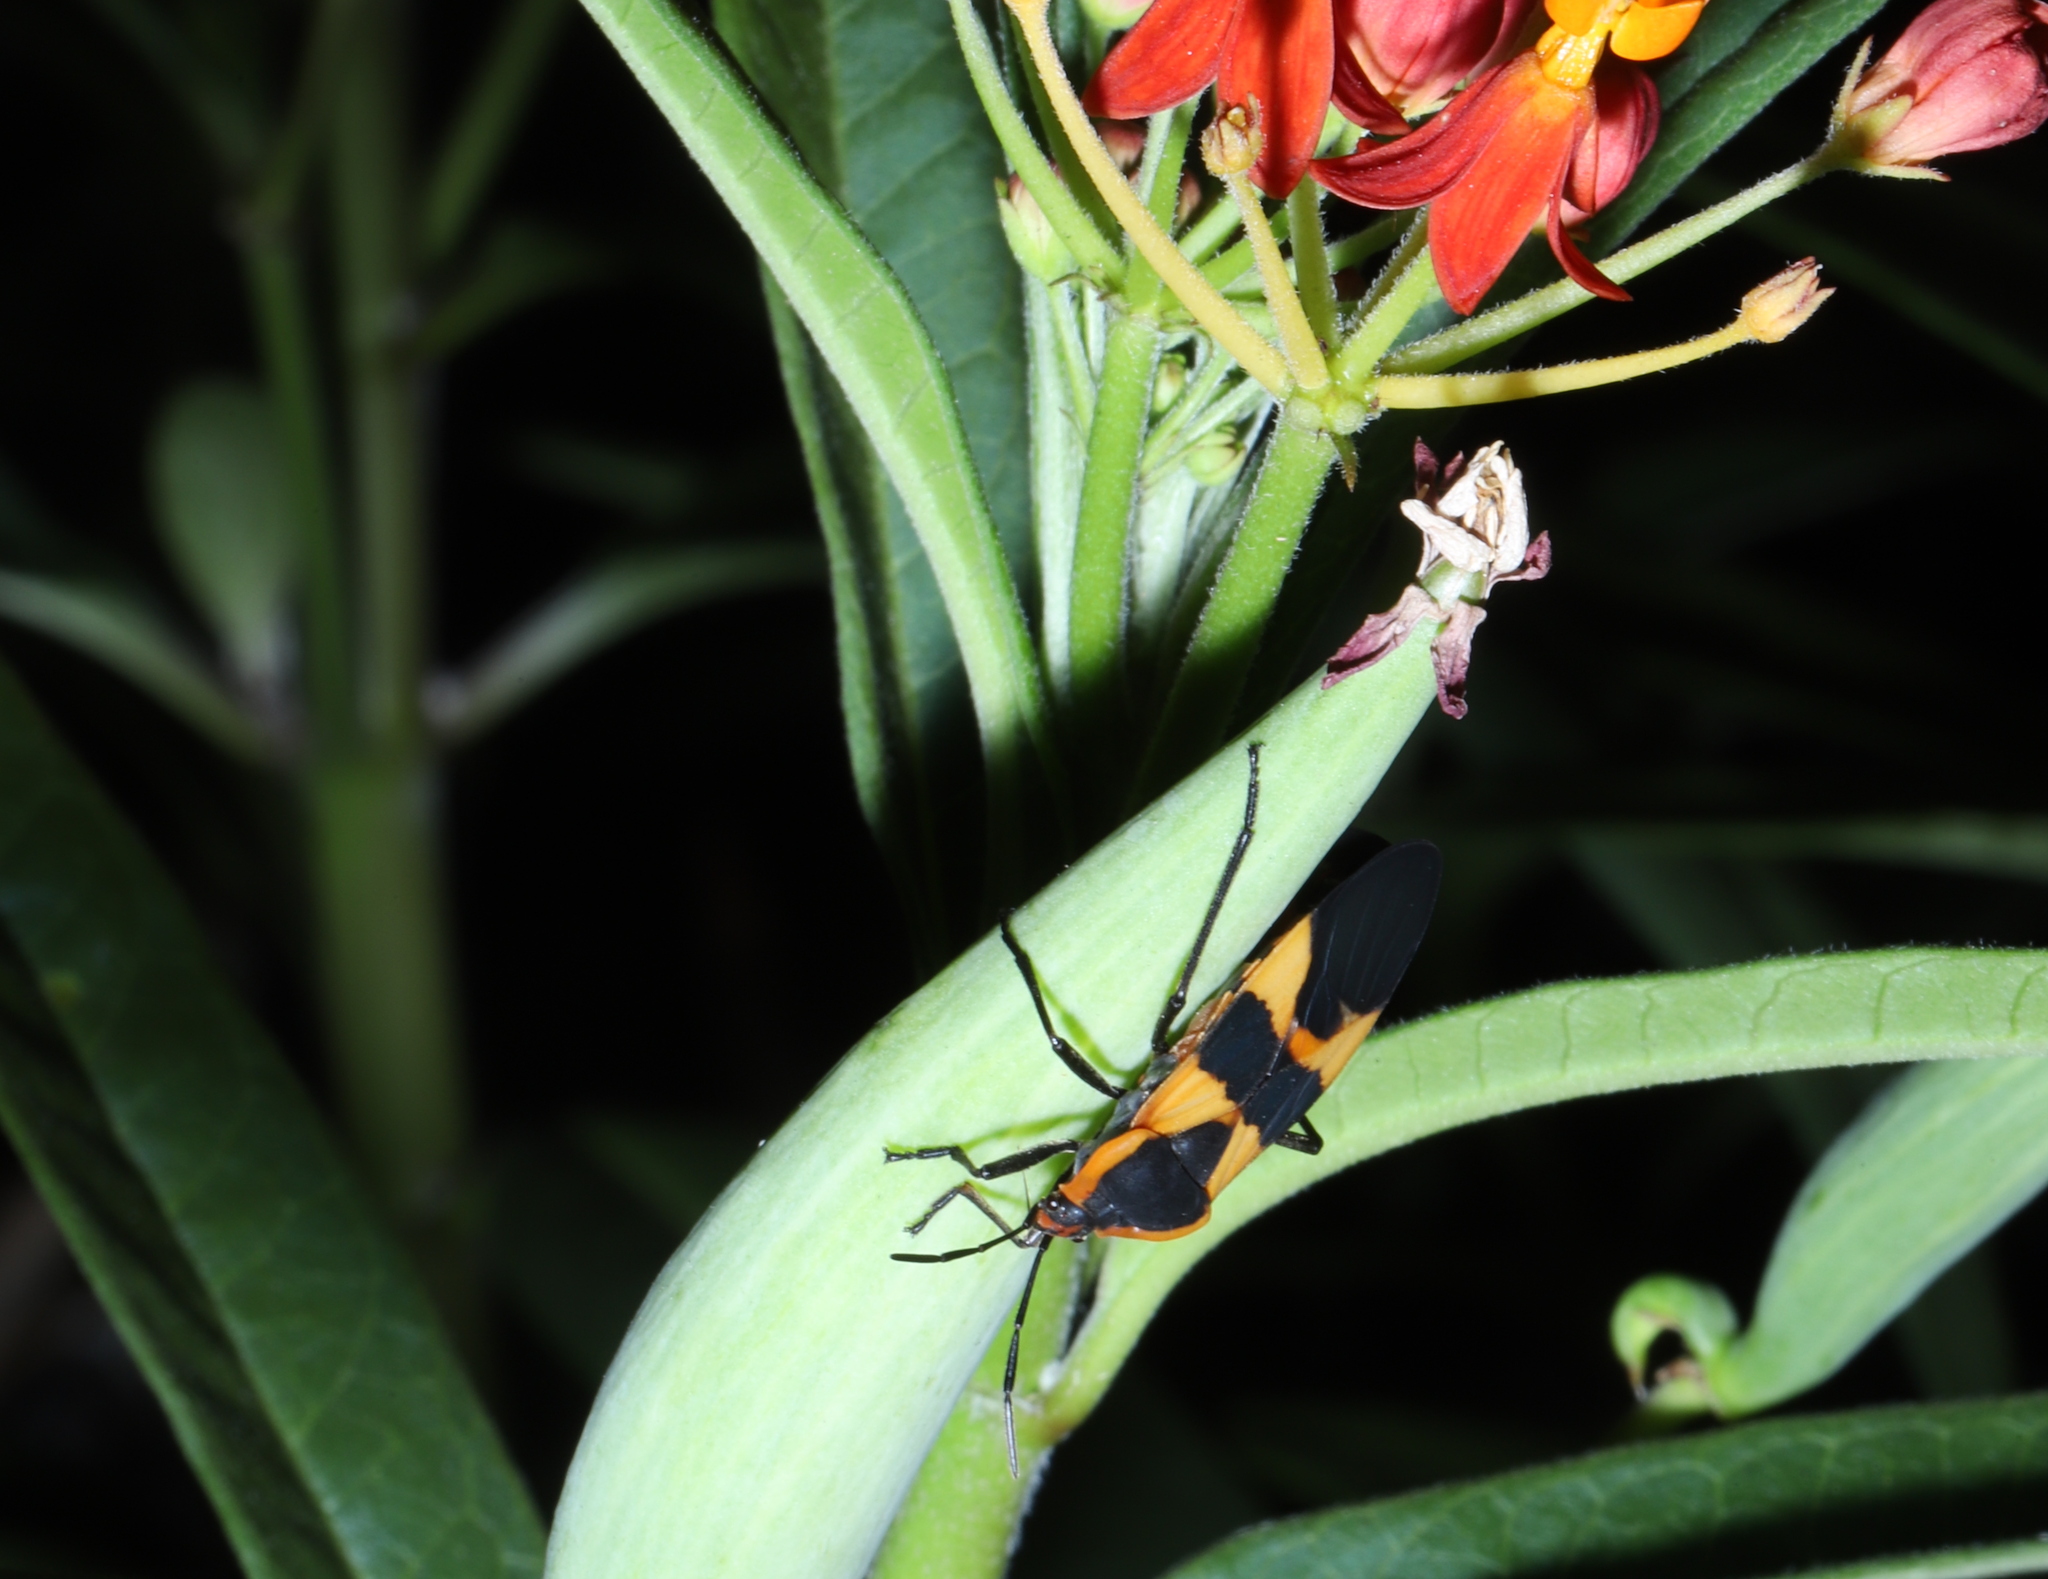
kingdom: Animalia
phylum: Arthropoda
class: Insecta
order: Hemiptera
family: Lygaeidae
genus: Oncopeltus
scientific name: Oncopeltus fasciatus
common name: Large milkweed bug
